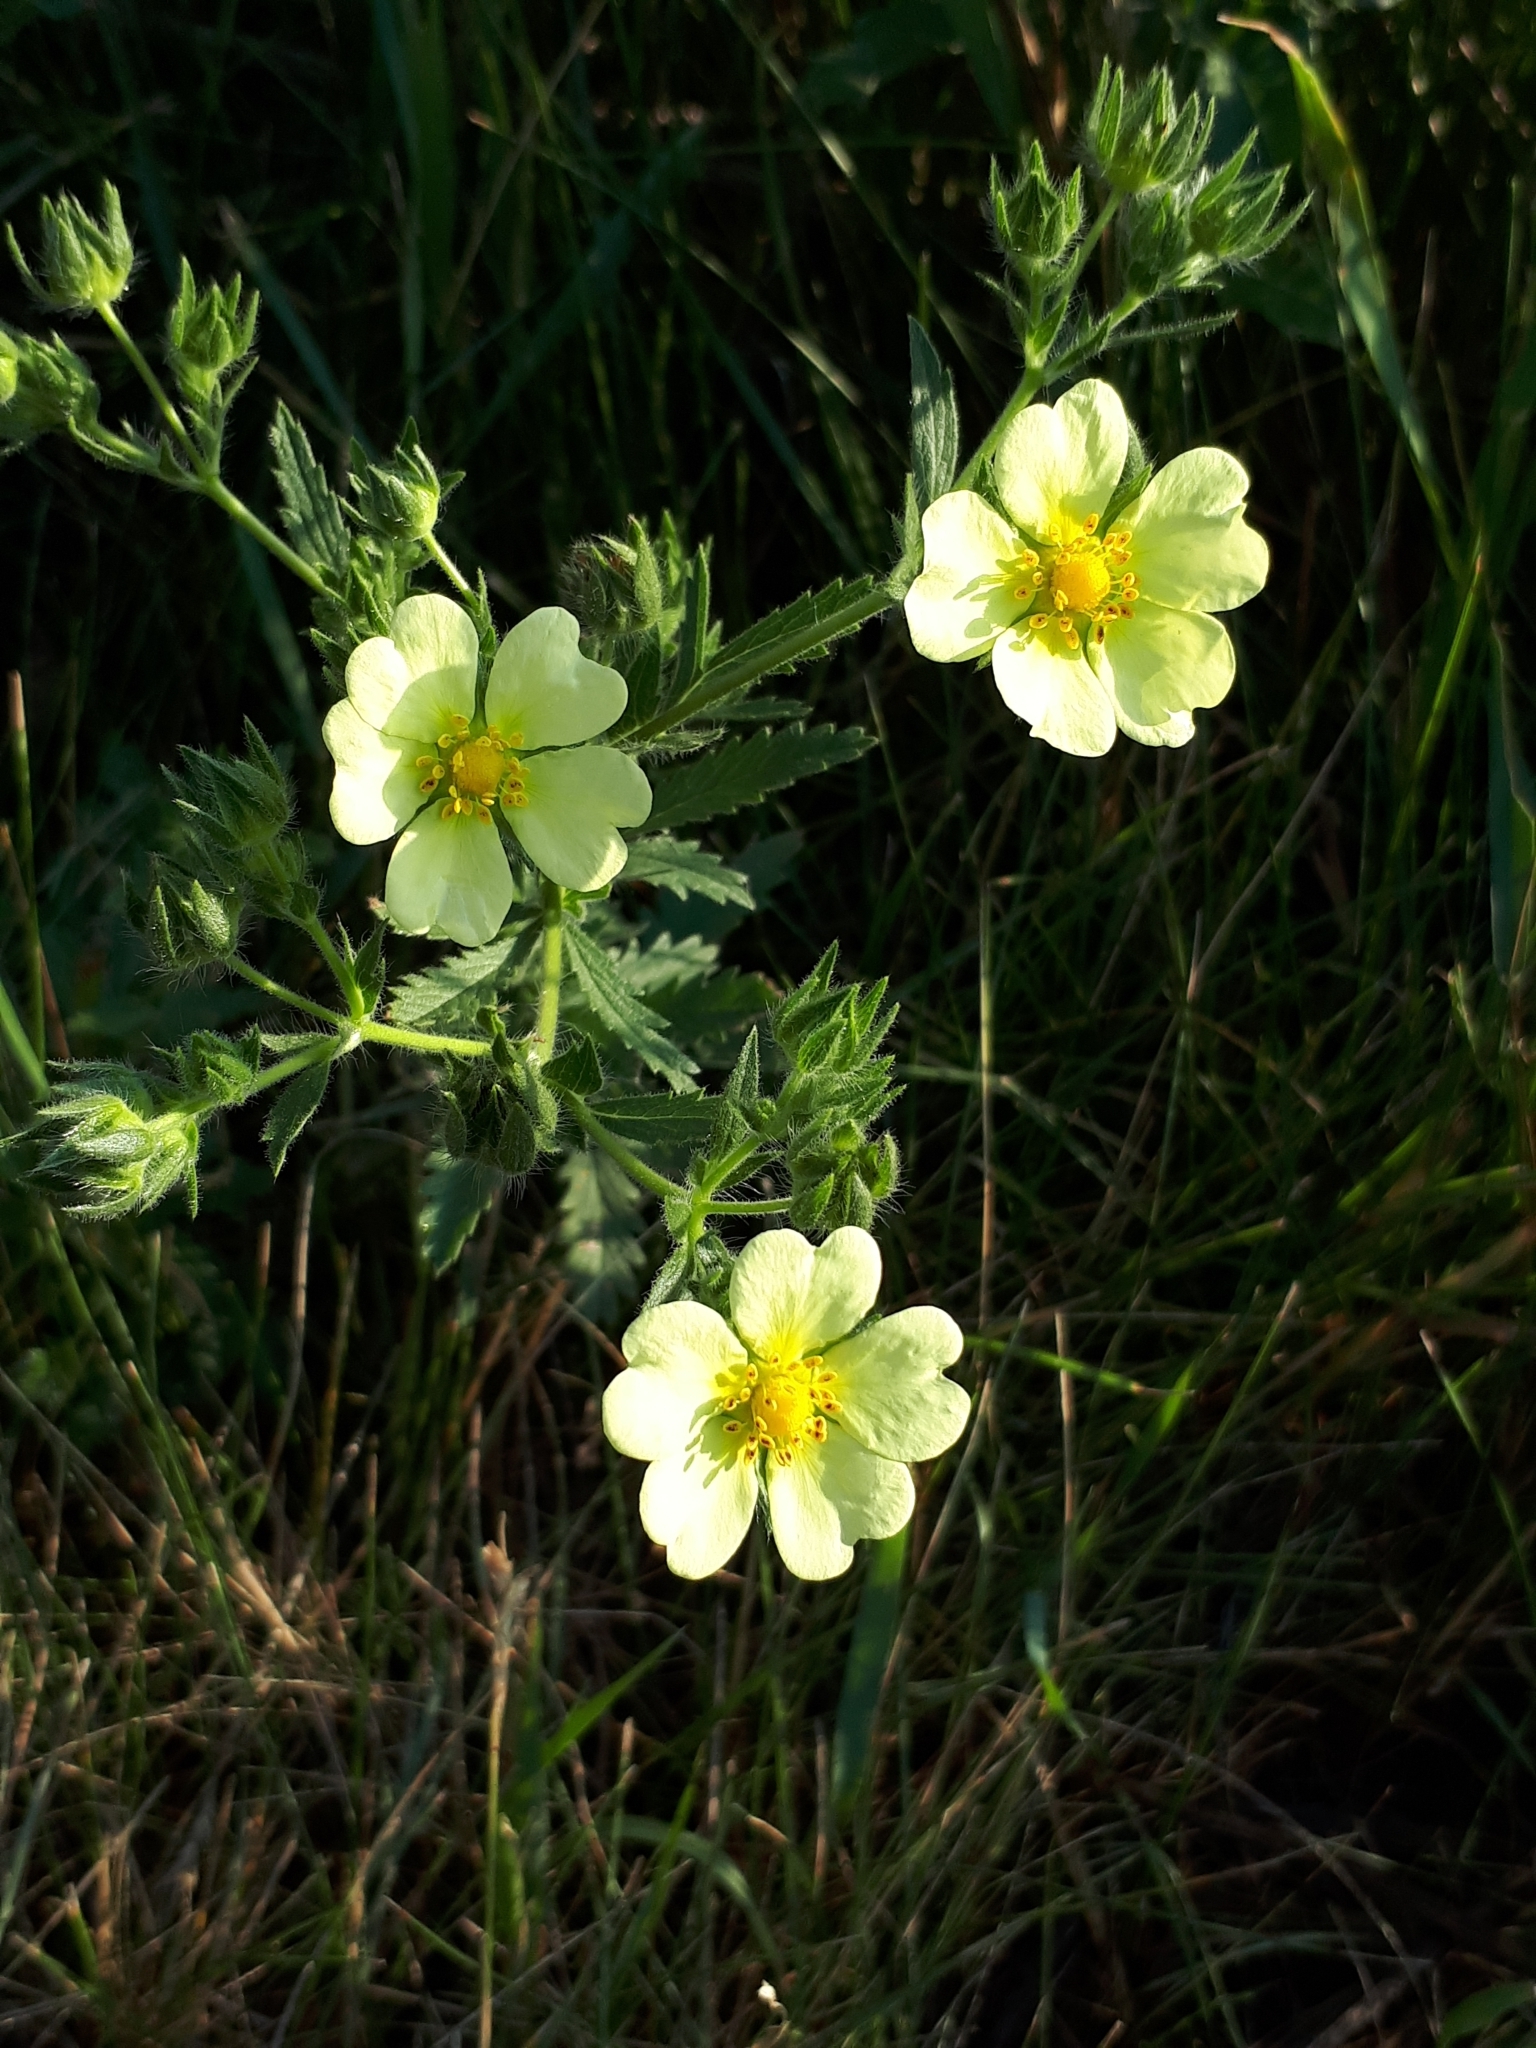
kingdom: Plantae
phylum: Tracheophyta
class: Magnoliopsida
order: Rosales
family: Rosaceae
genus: Potentilla
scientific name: Potentilla recta
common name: Sulphur cinquefoil
